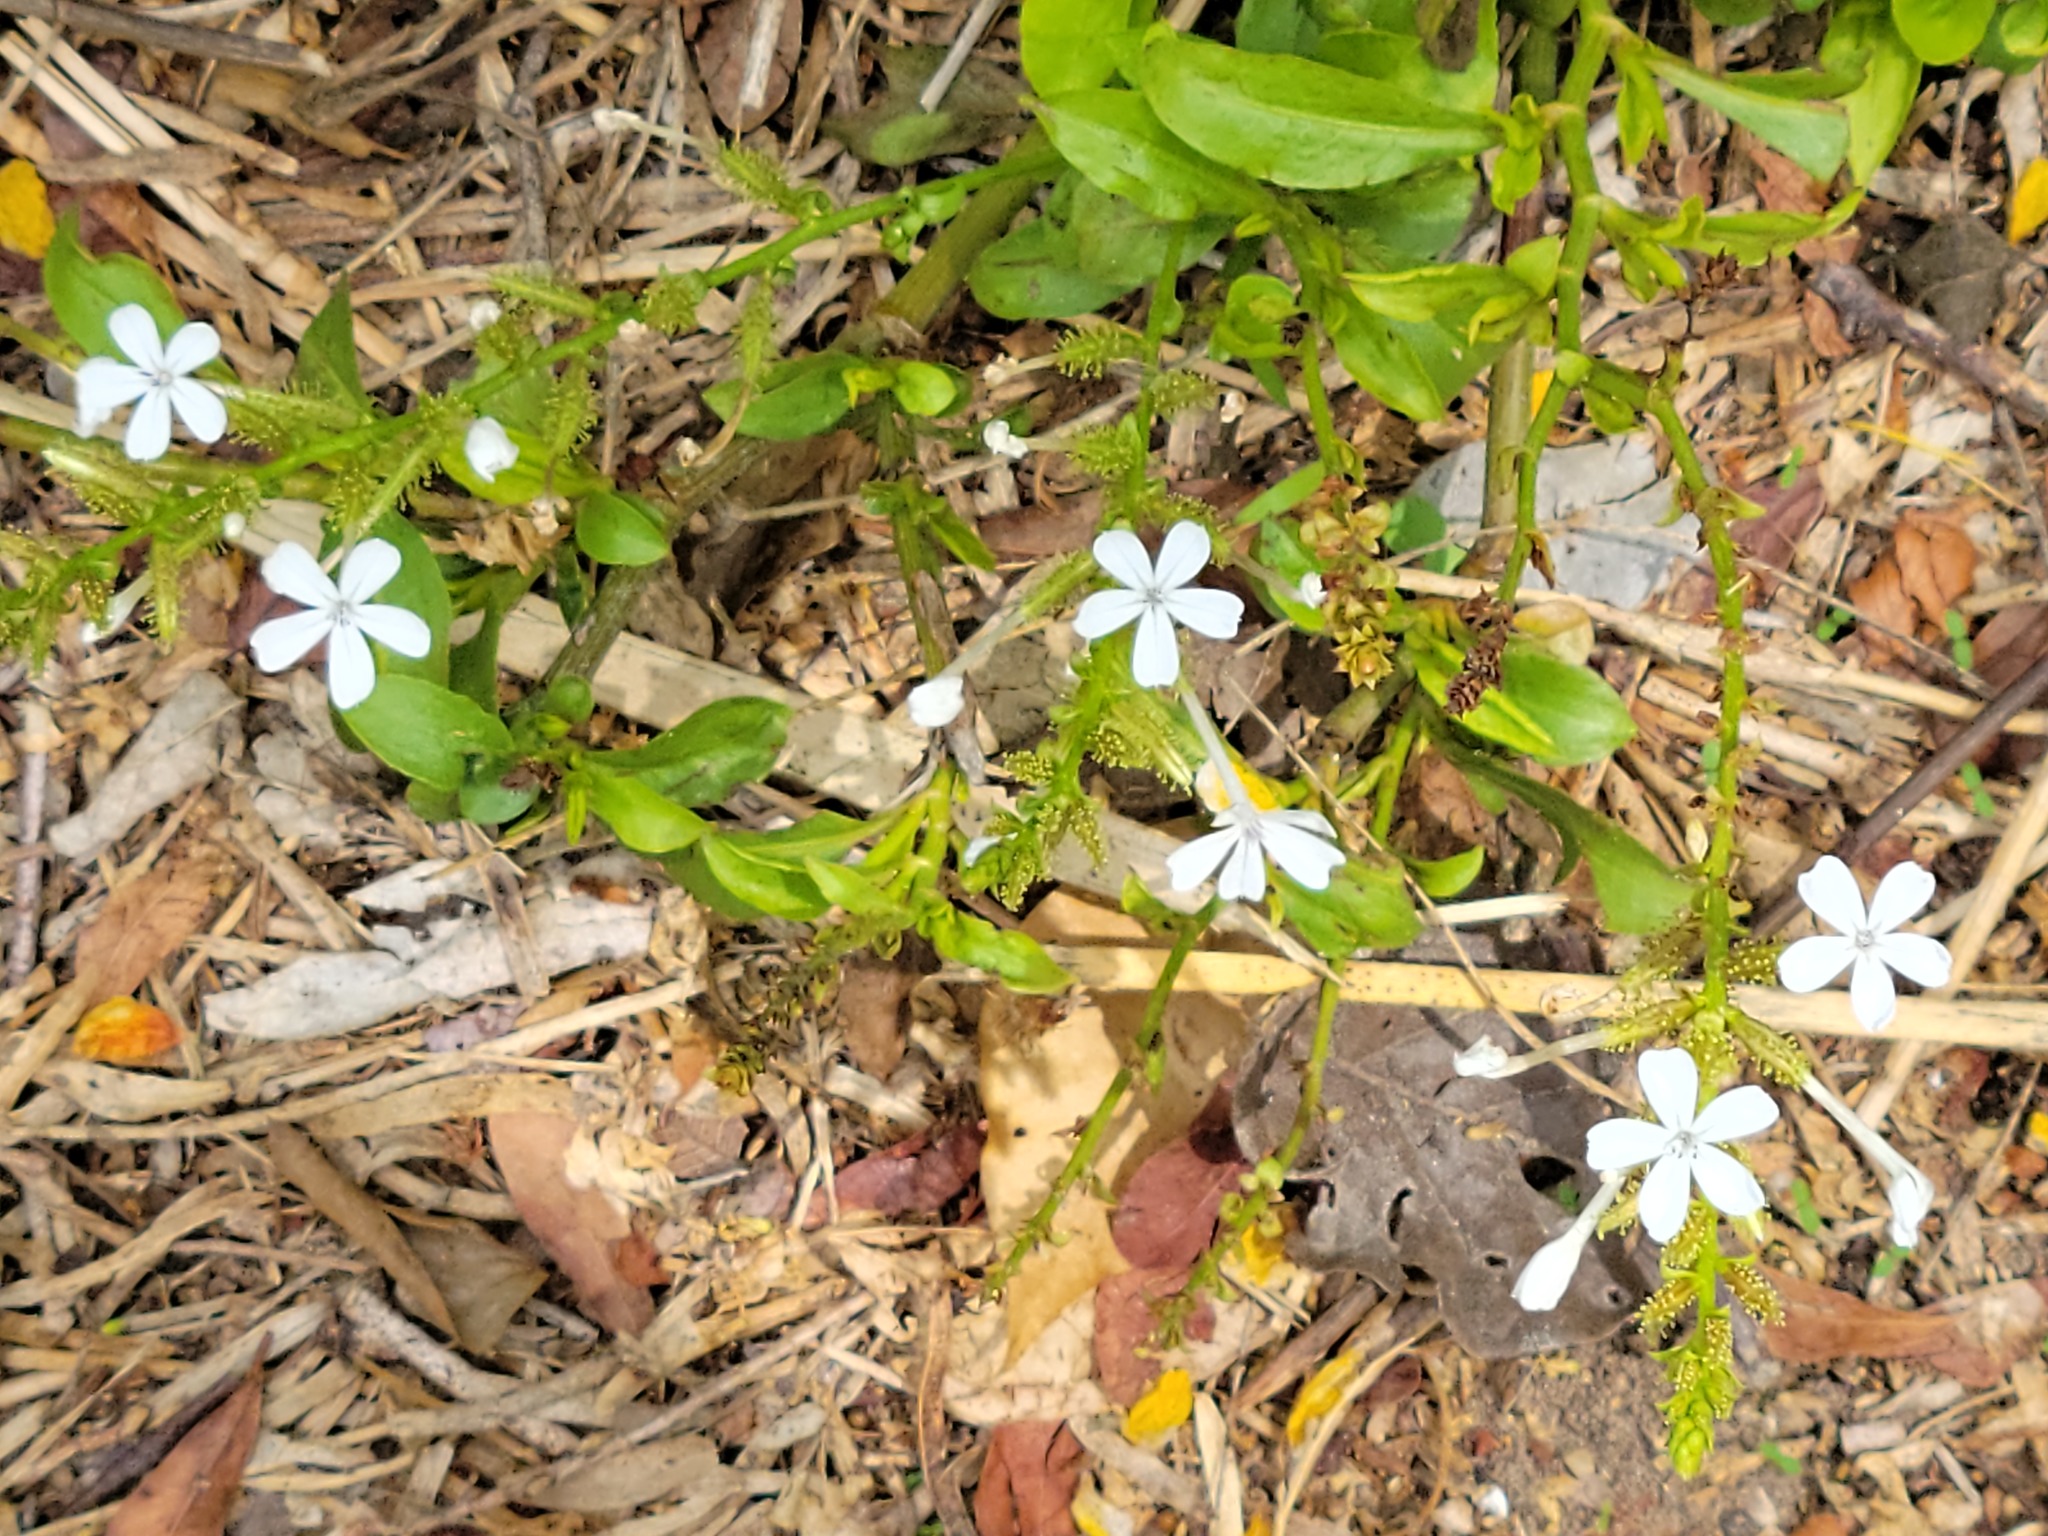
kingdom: Plantae
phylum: Tracheophyta
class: Magnoliopsida
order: Caryophyllales
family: Plumbaginaceae
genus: Plumbago
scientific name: Plumbago zeylanica
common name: Doctorbush
